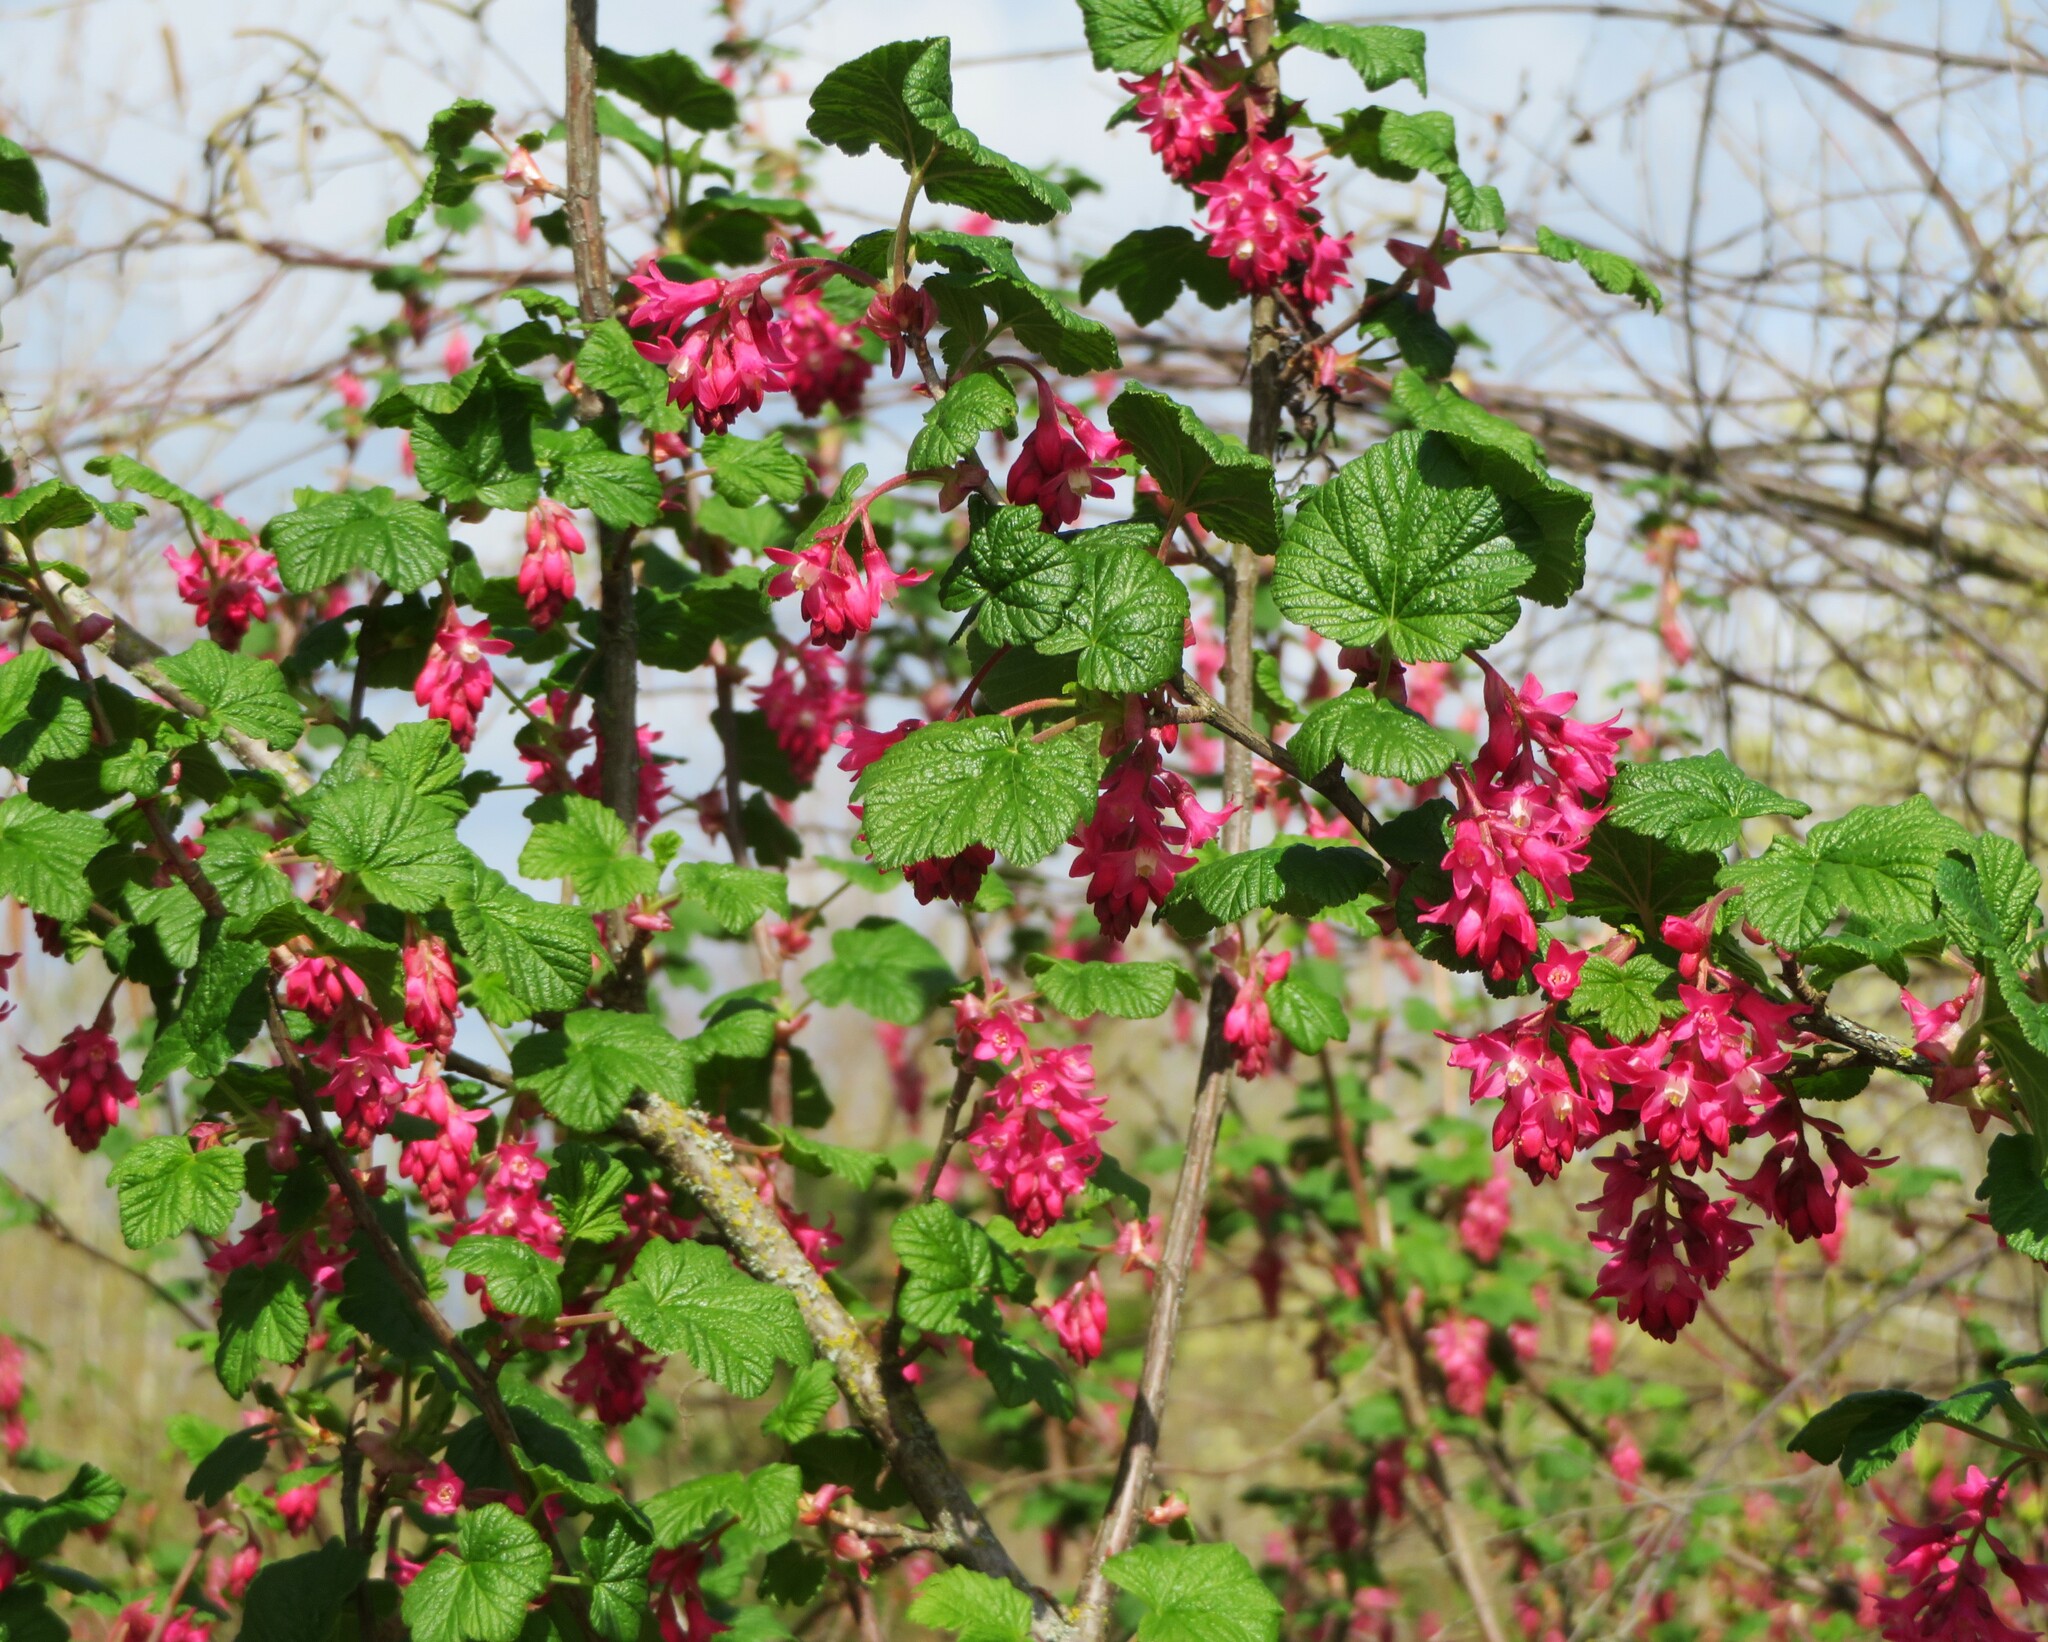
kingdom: Plantae
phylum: Tracheophyta
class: Magnoliopsida
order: Saxifragales
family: Grossulariaceae
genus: Ribes
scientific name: Ribes sanguineum
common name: Flowering currant
